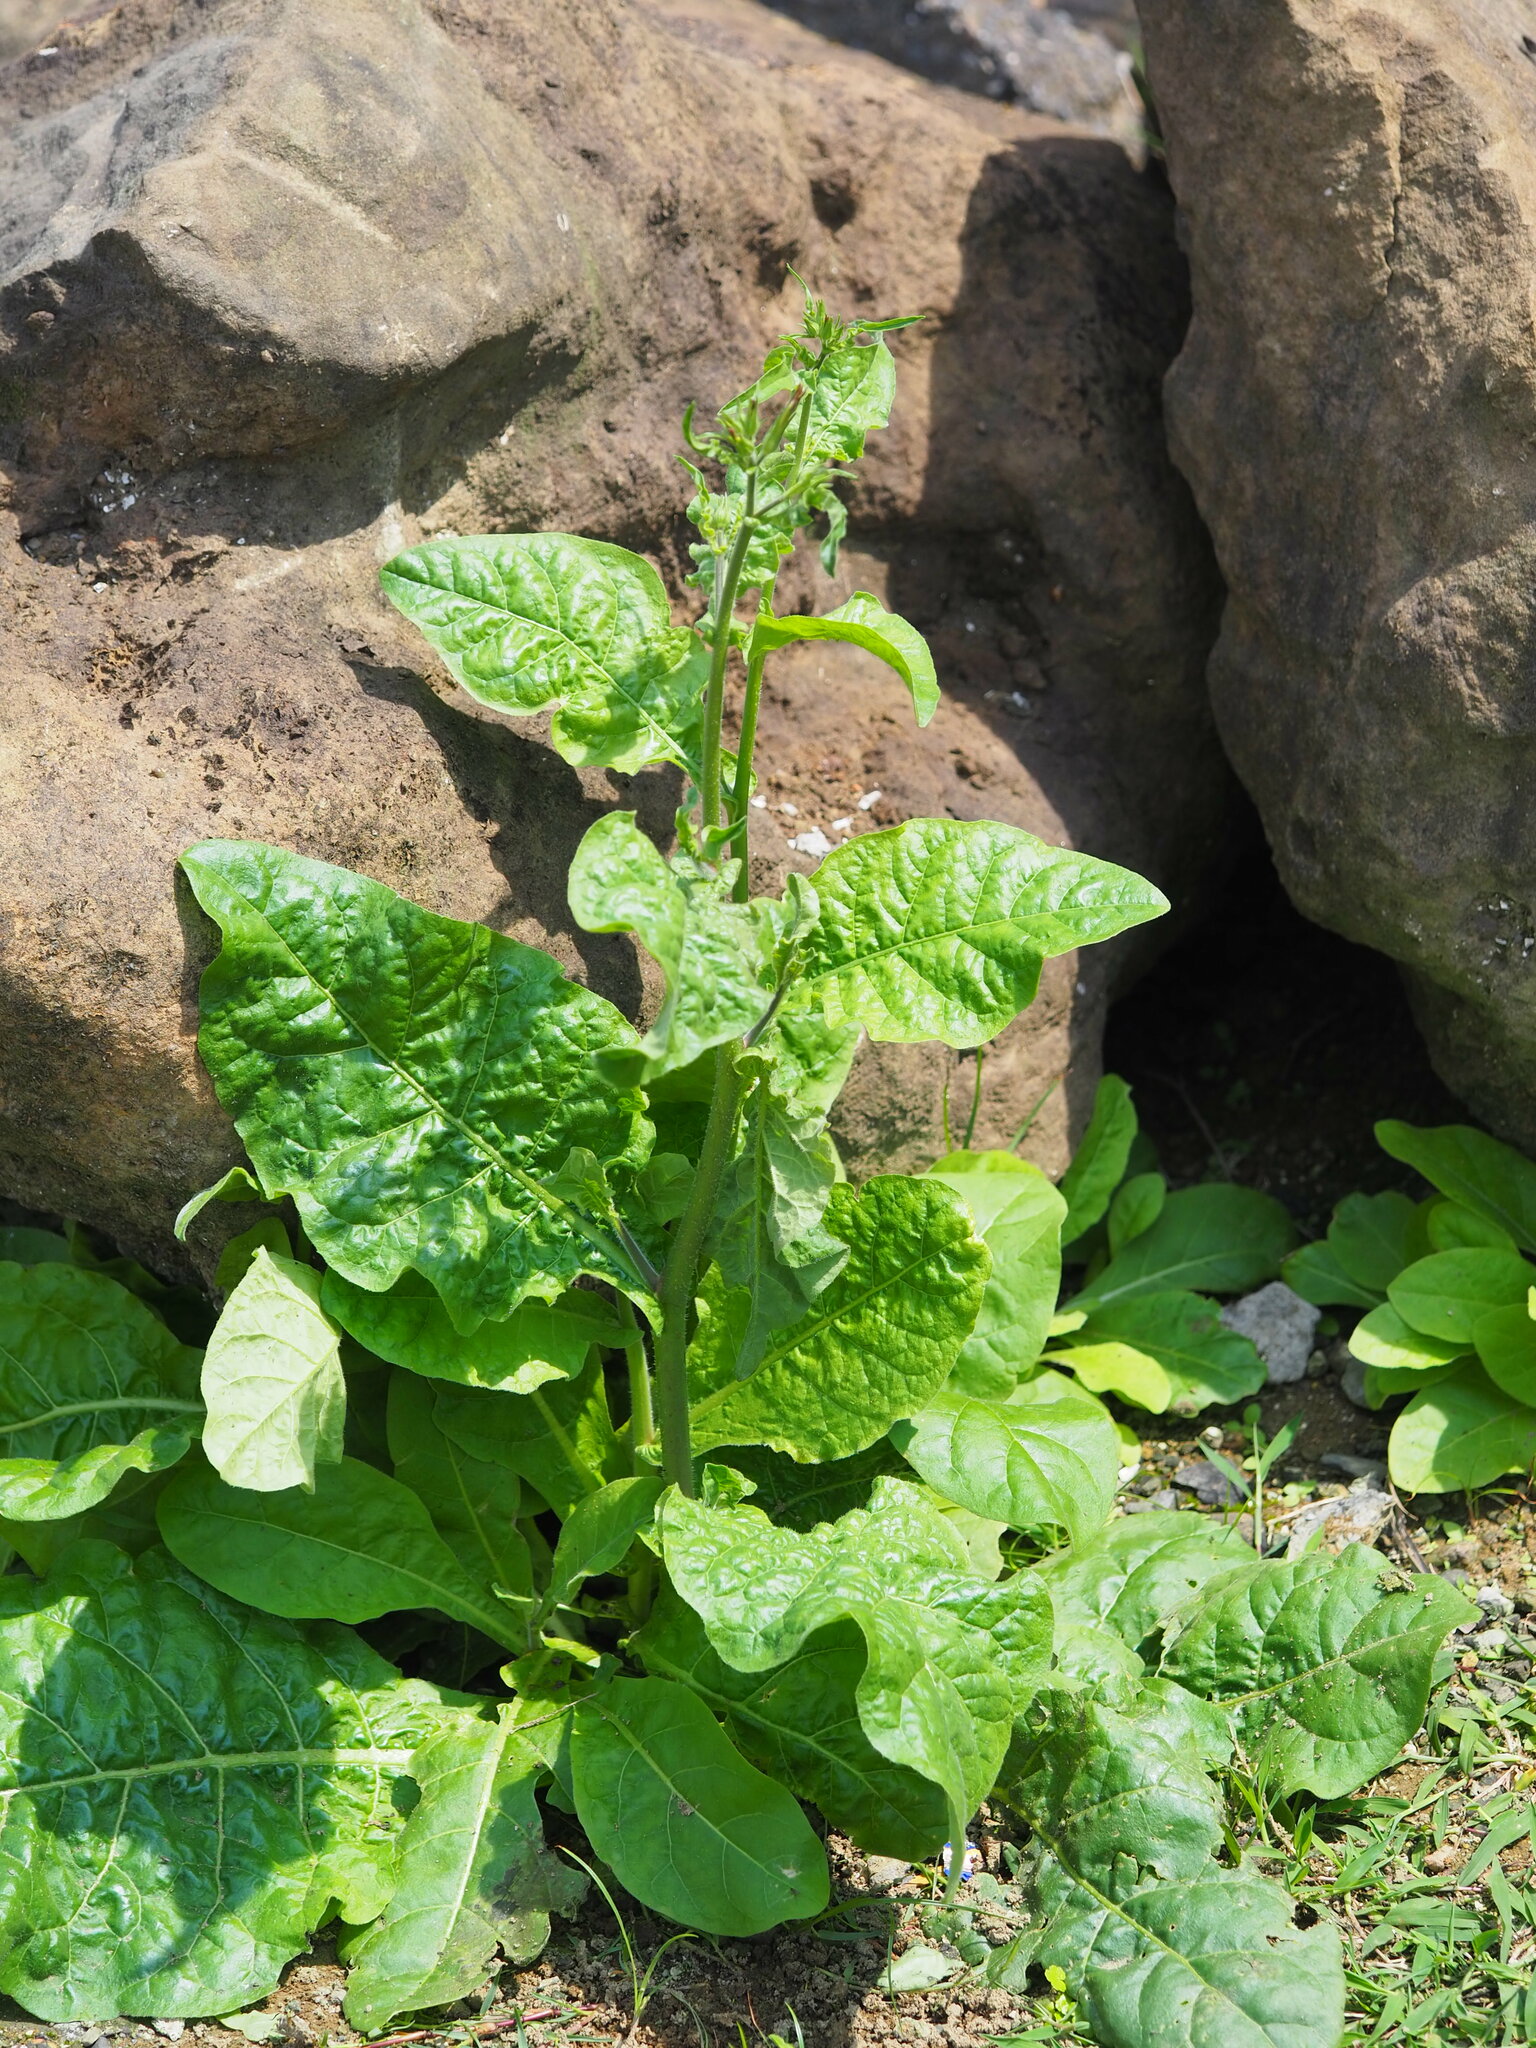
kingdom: Plantae
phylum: Tracheophyta
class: Magnoliopsida
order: Solanales
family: Solanaceae
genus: Nicotiana
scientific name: Nicotiana plumbaginifolia
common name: Tex-mex tobacco
